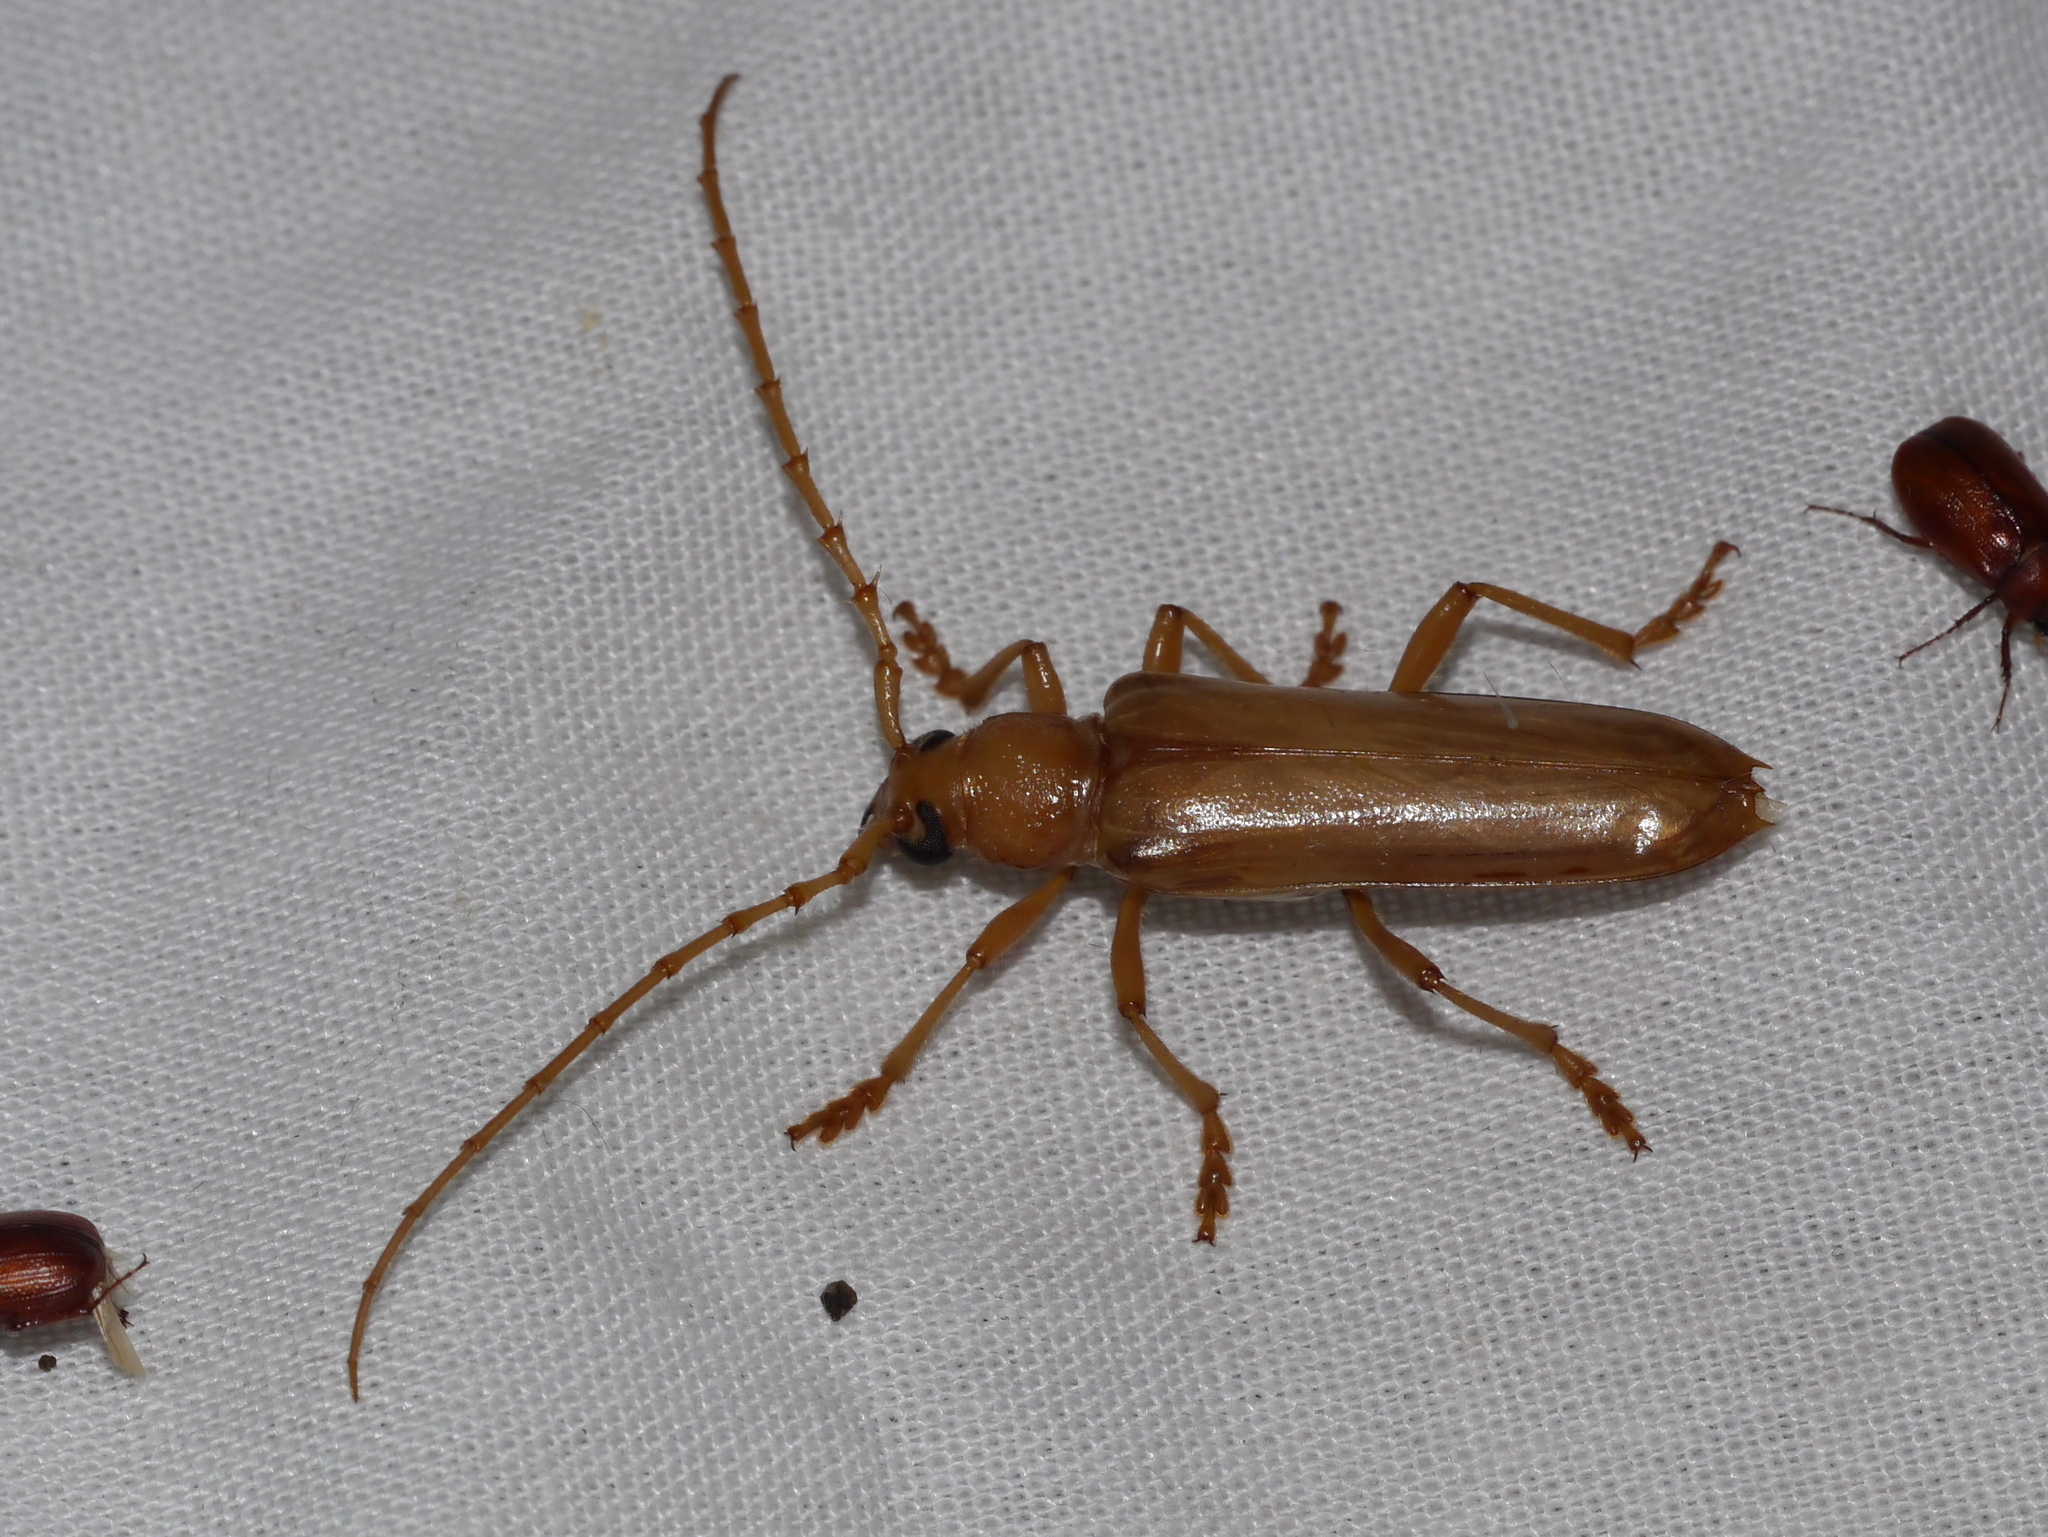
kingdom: Animalia
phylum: Arthropoda
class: Insecta
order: Coleoptera
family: Cerambycidae
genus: Atylostagma
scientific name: Atylostagma polita
